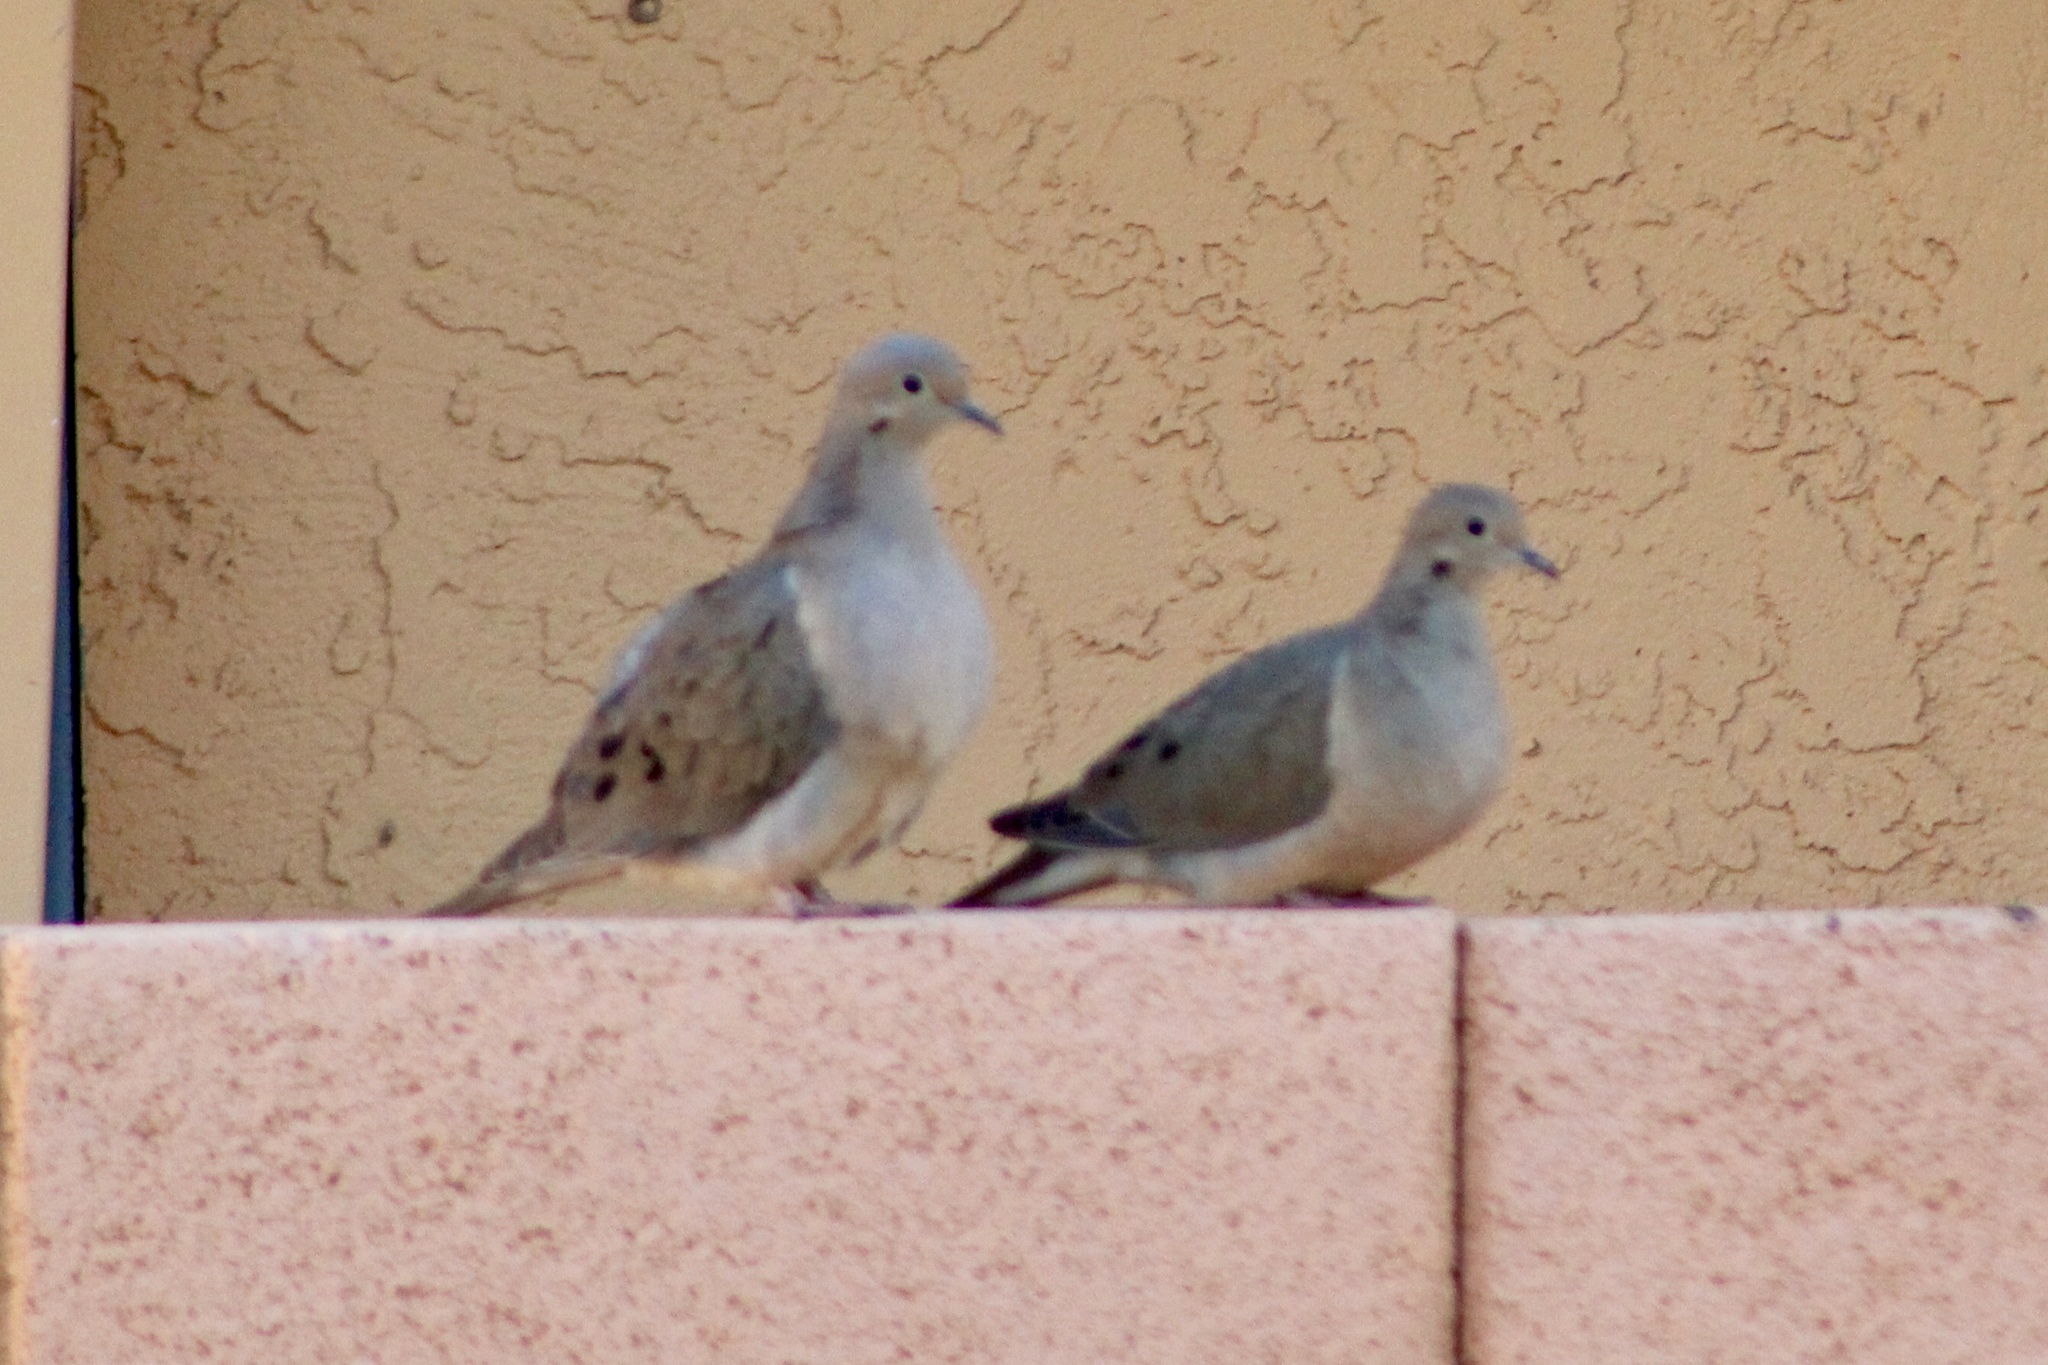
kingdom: Animalia
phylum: Chordata
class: Aves
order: Columbiformes
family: Columbidae
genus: Zenaida
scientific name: Zenaida macroura
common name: Mourning dove
